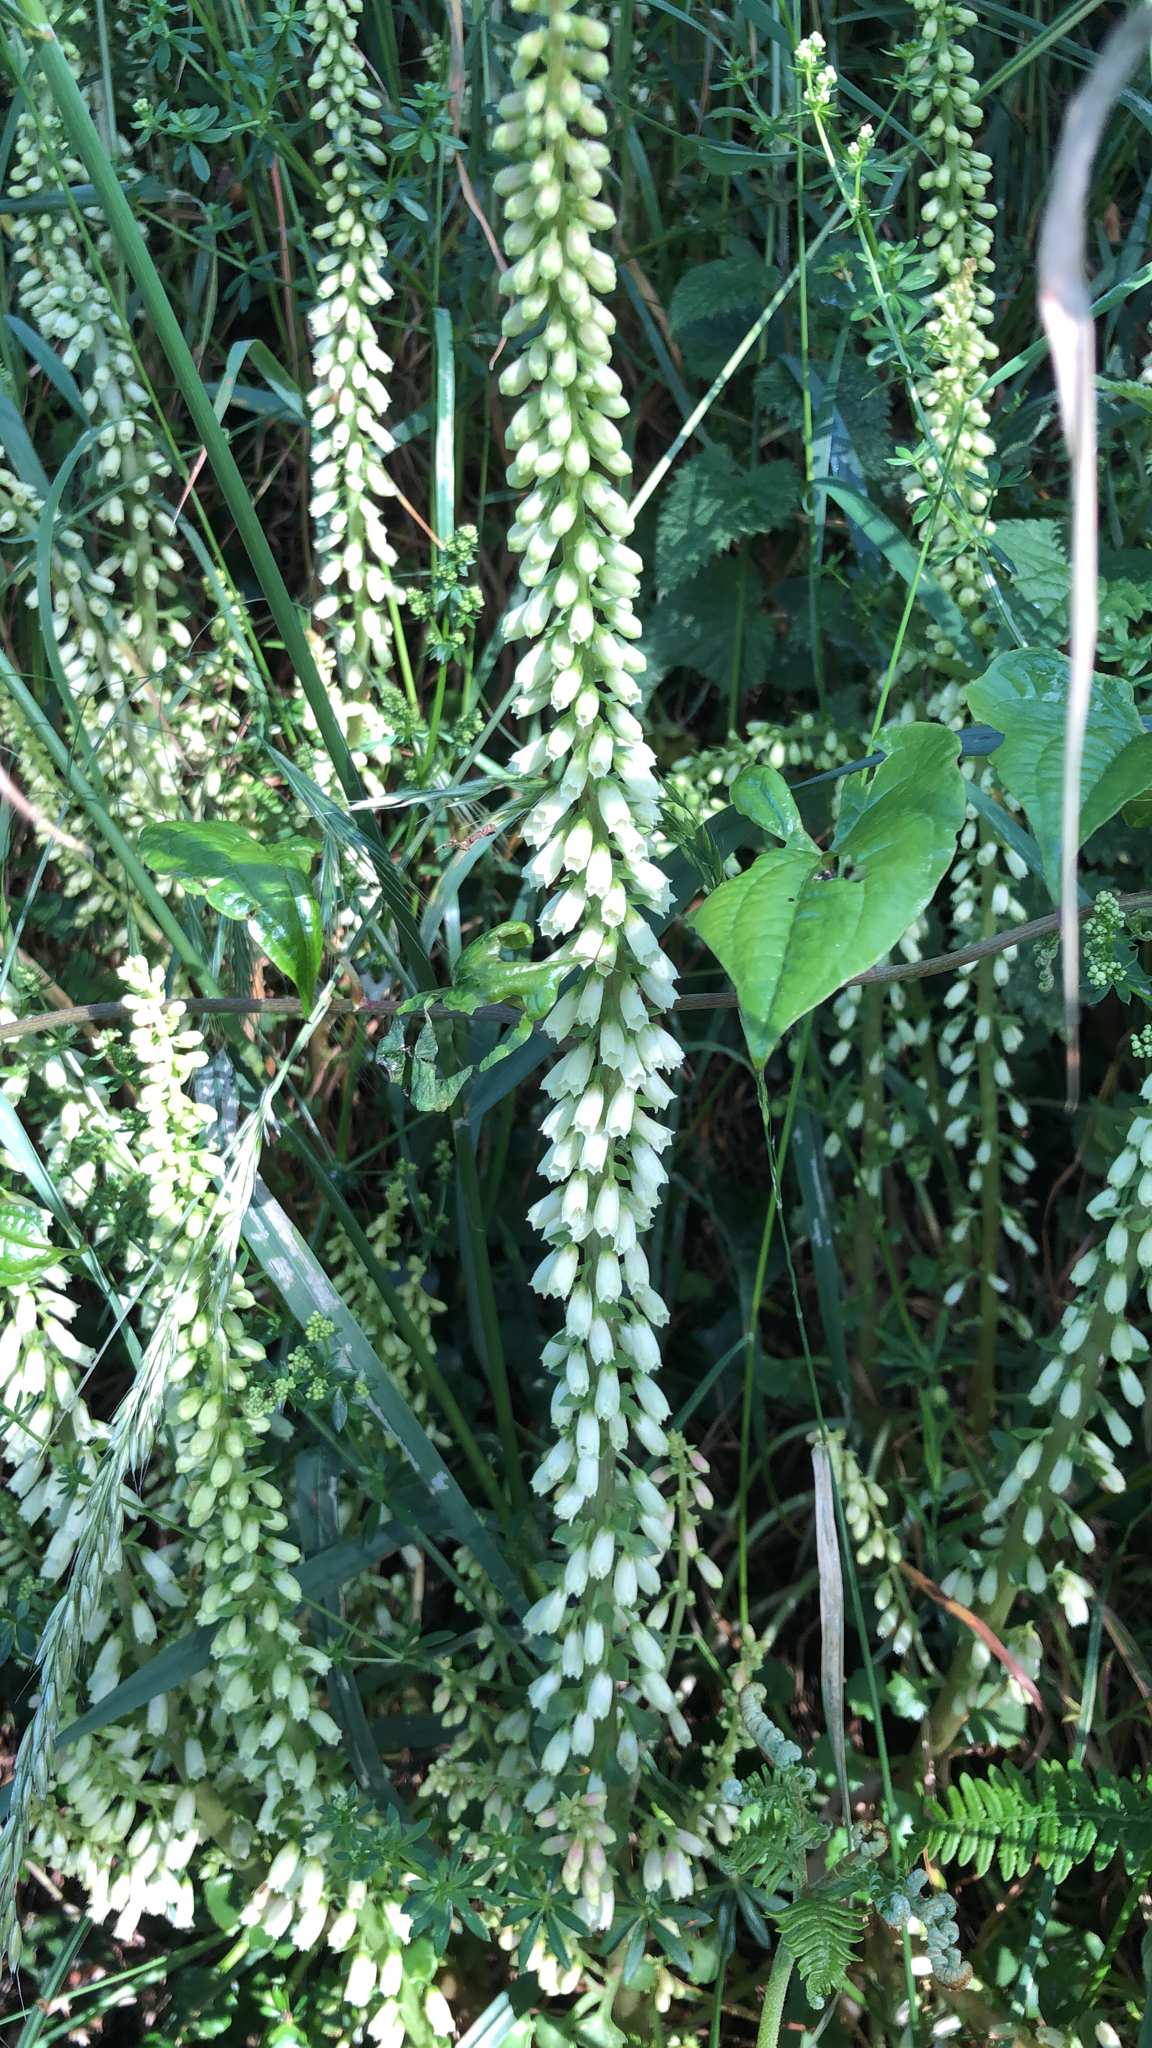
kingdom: Plantae
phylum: Tracheophyta
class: Magnoliopsida
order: Saxifragales
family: Crassulaceae
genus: Umbilicus
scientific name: Umbilicus rupestris
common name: Navelwort
